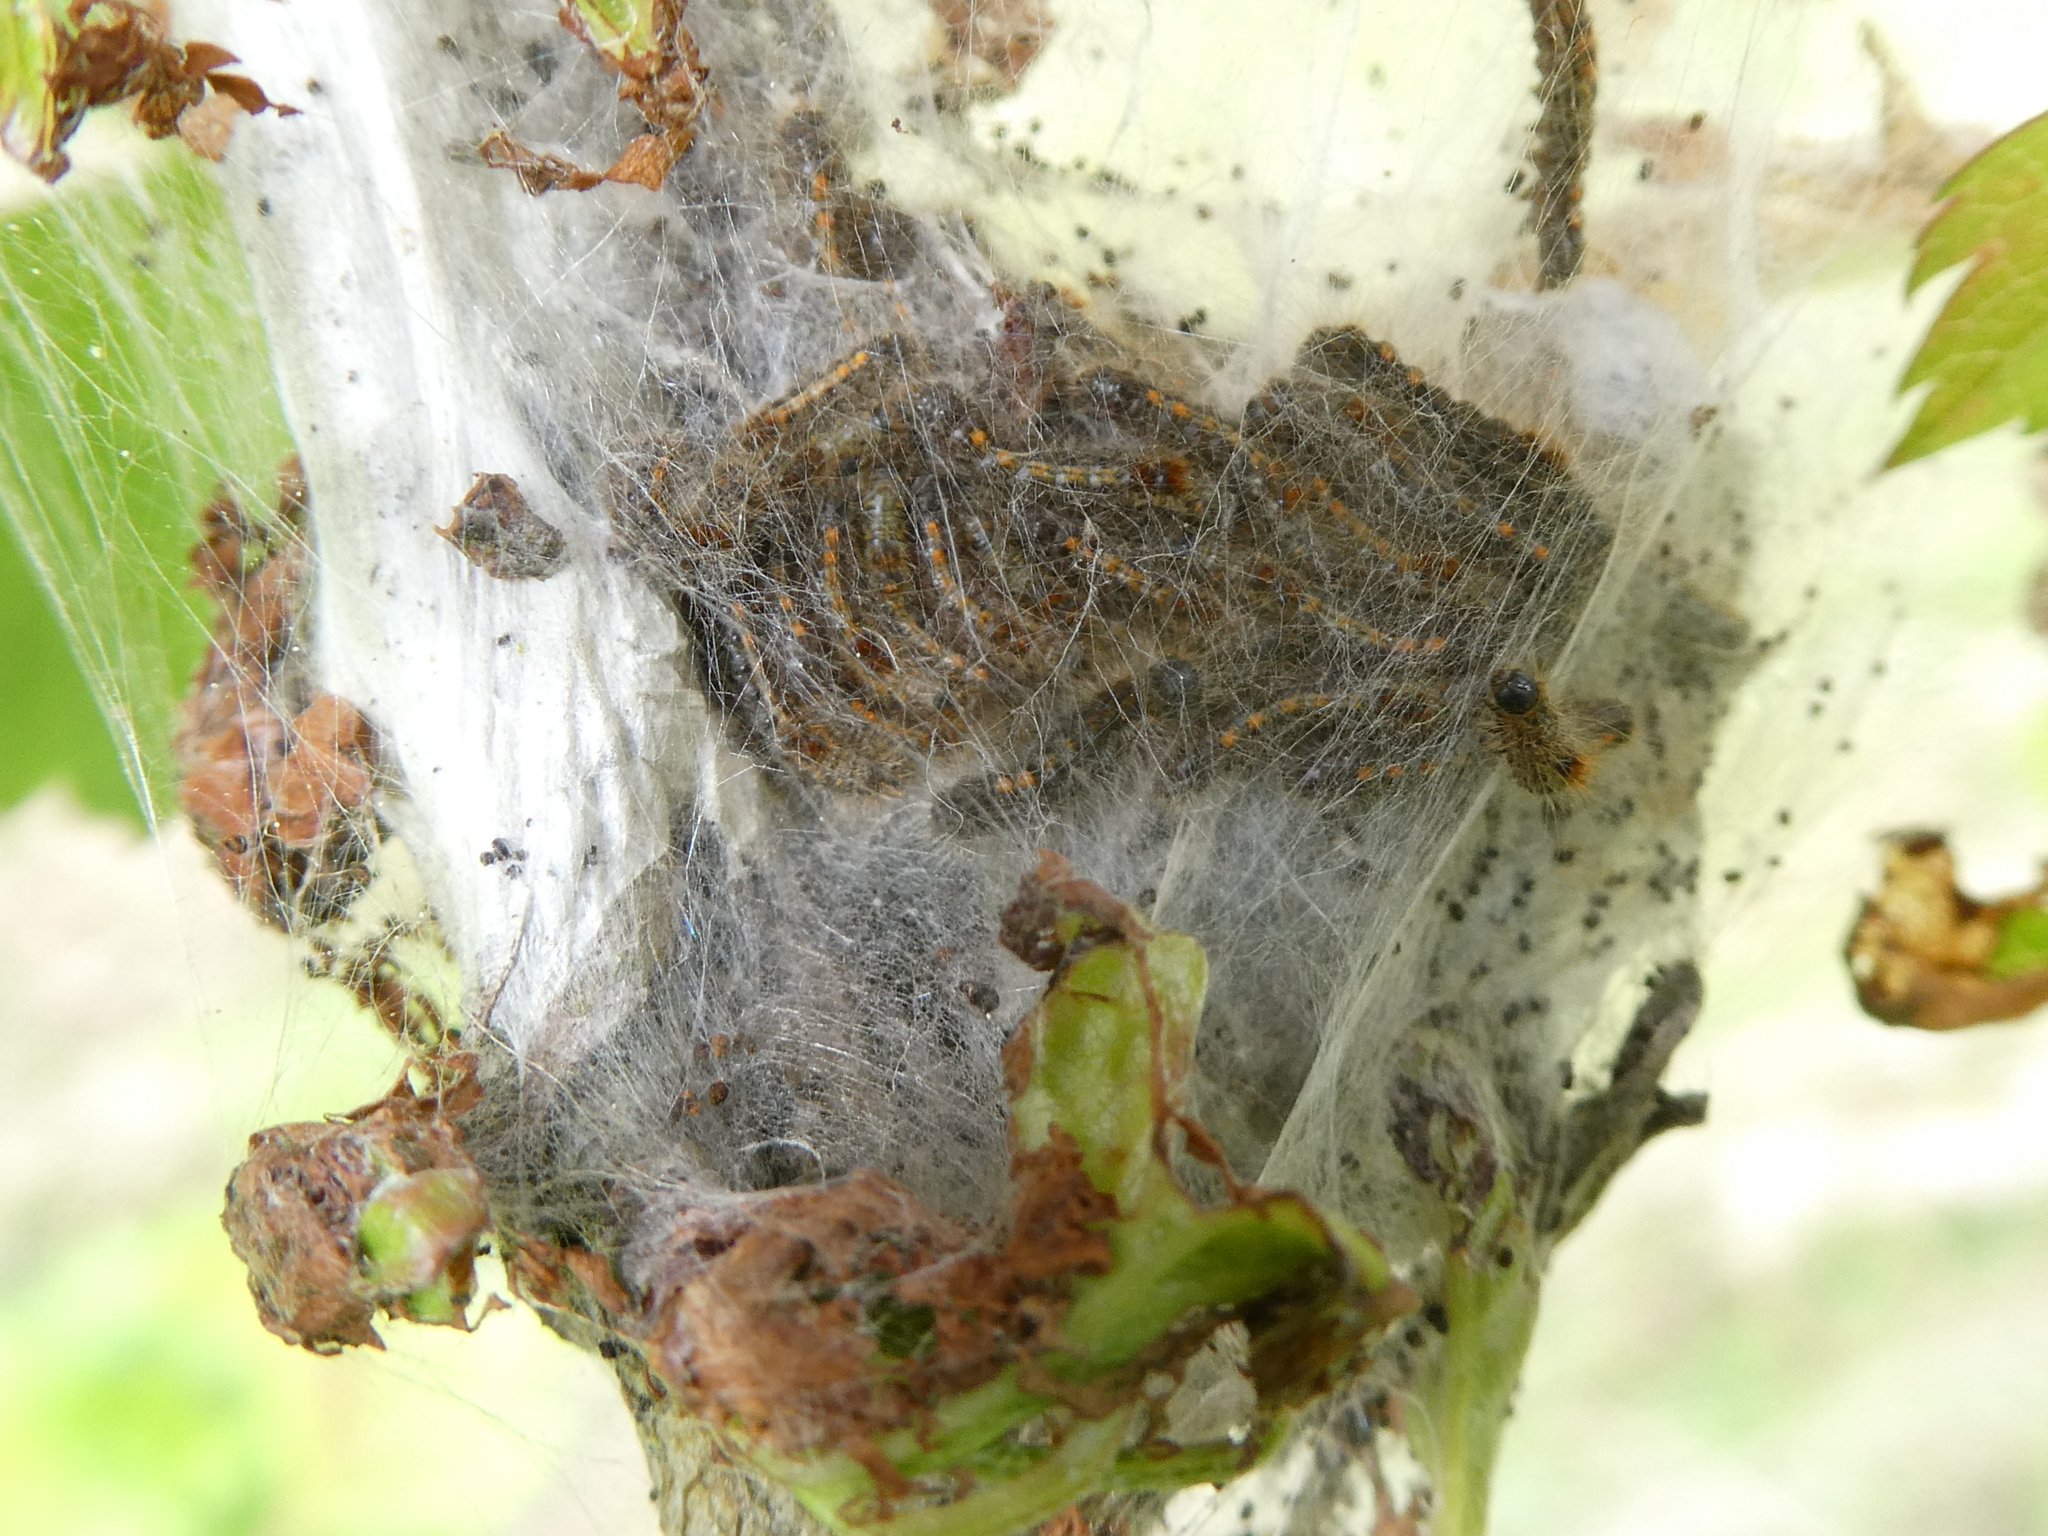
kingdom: Animalia
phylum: Arthropoda
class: Insecta
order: Lepidoptera
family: Erebidae
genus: Euproctis
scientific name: Euproctis chrysorrhoea
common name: Brown-tail
